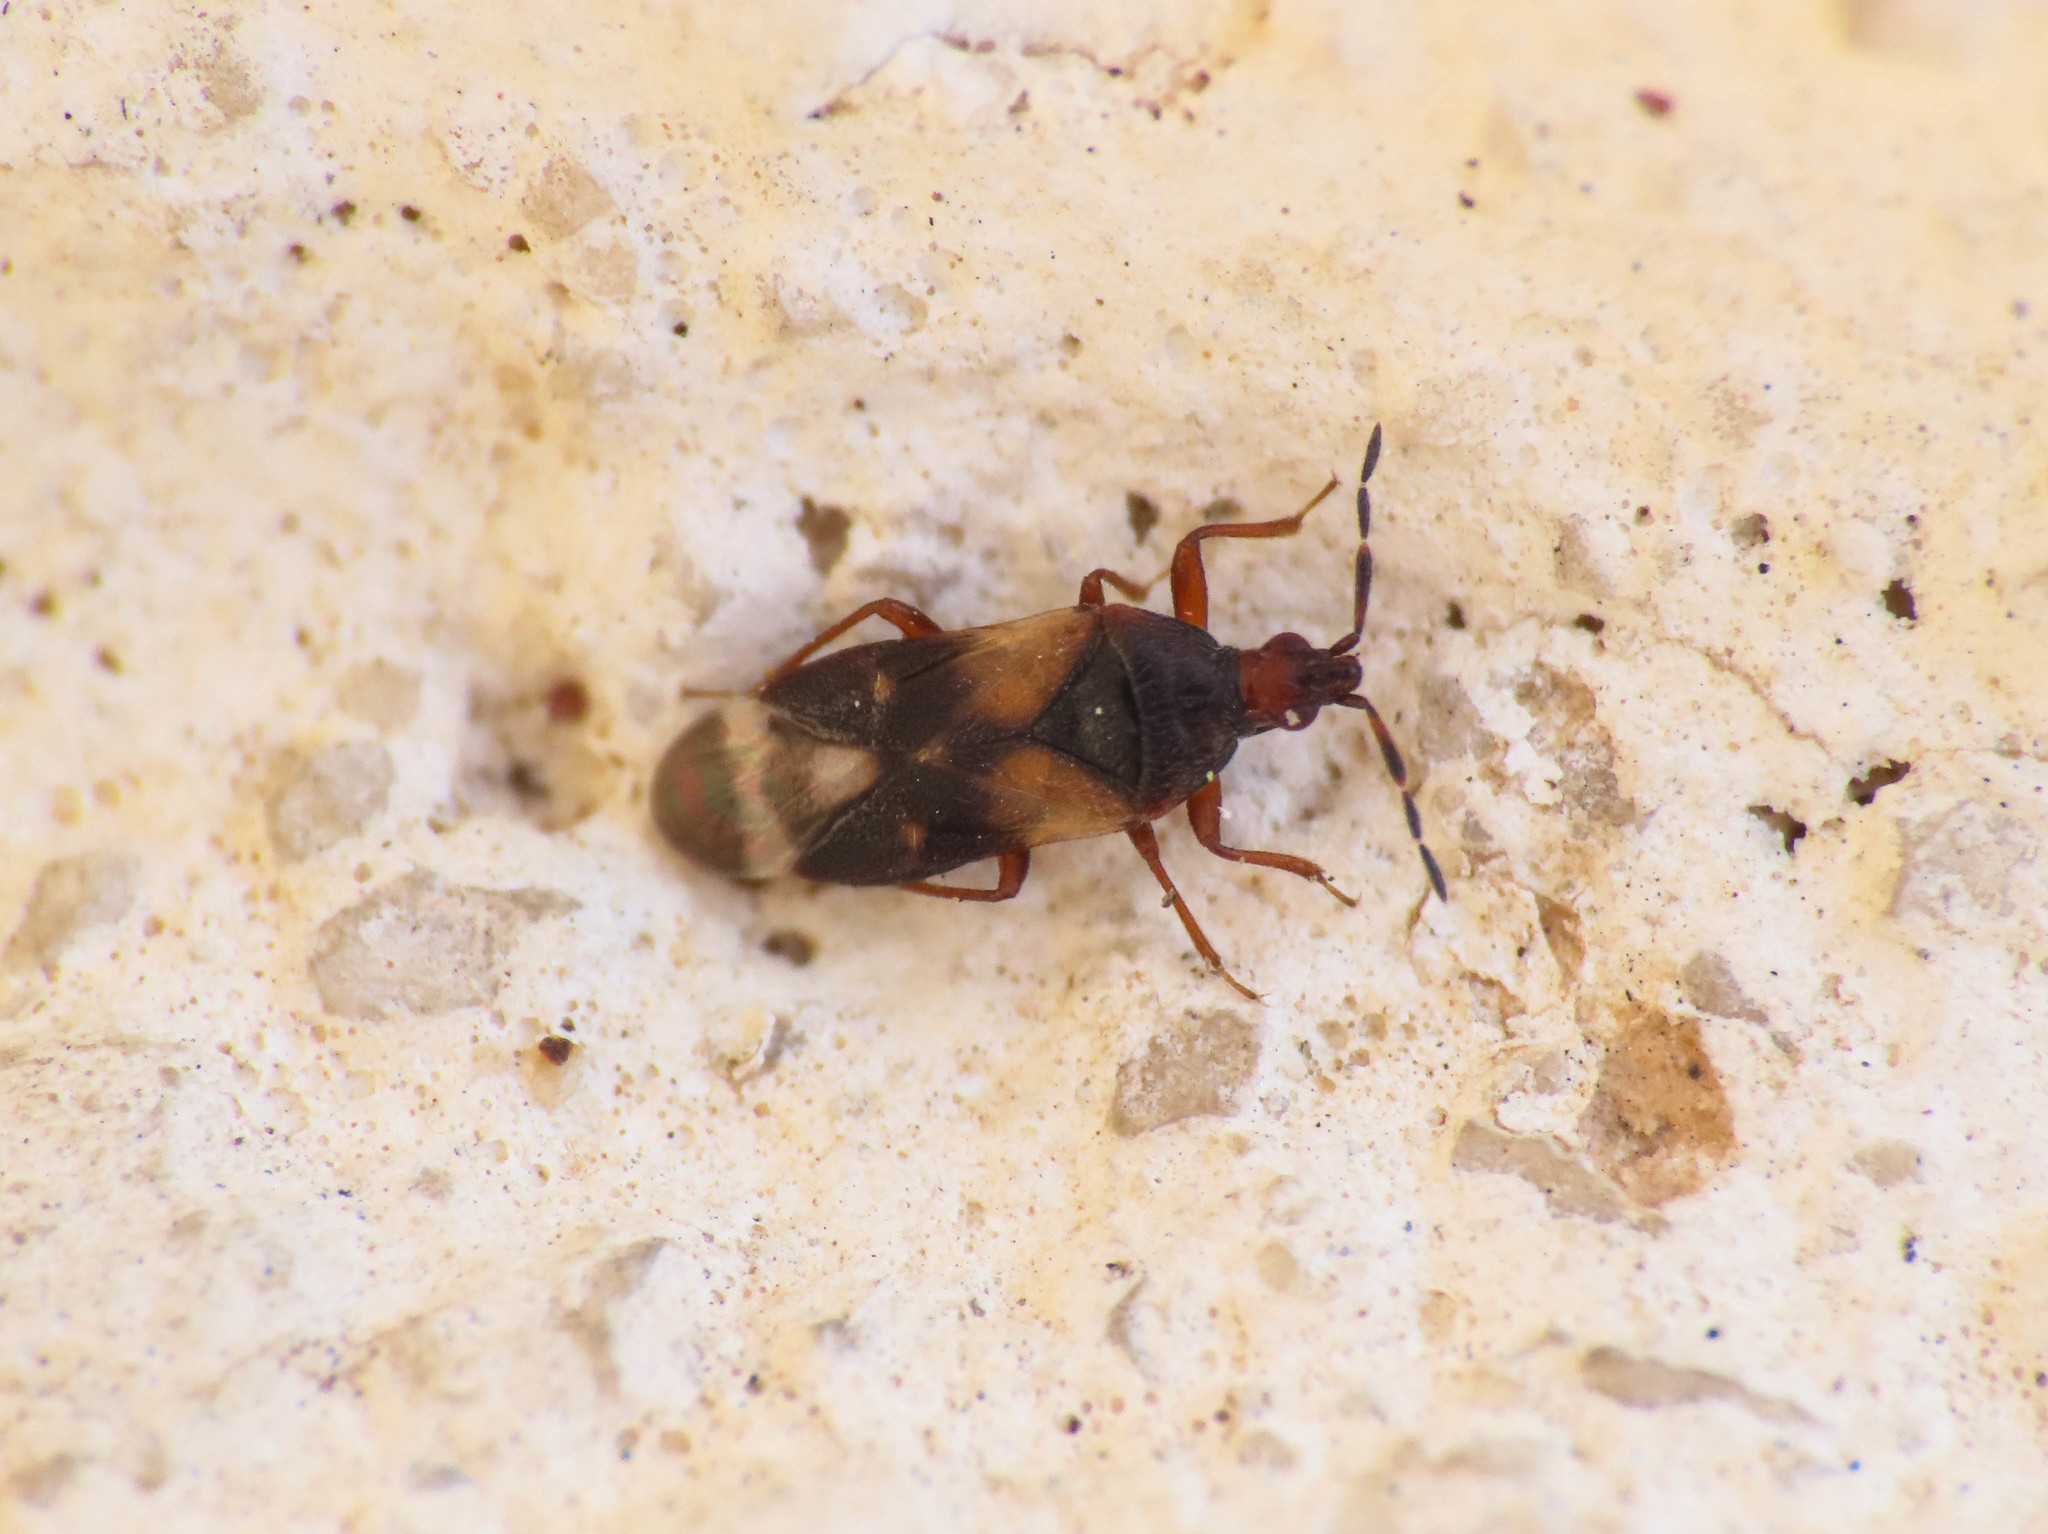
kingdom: Animalia
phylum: Arthropoda
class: Insecta
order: Hemiptera
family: Anthocoridae
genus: Anthocoris
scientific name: Anthocoris minki
